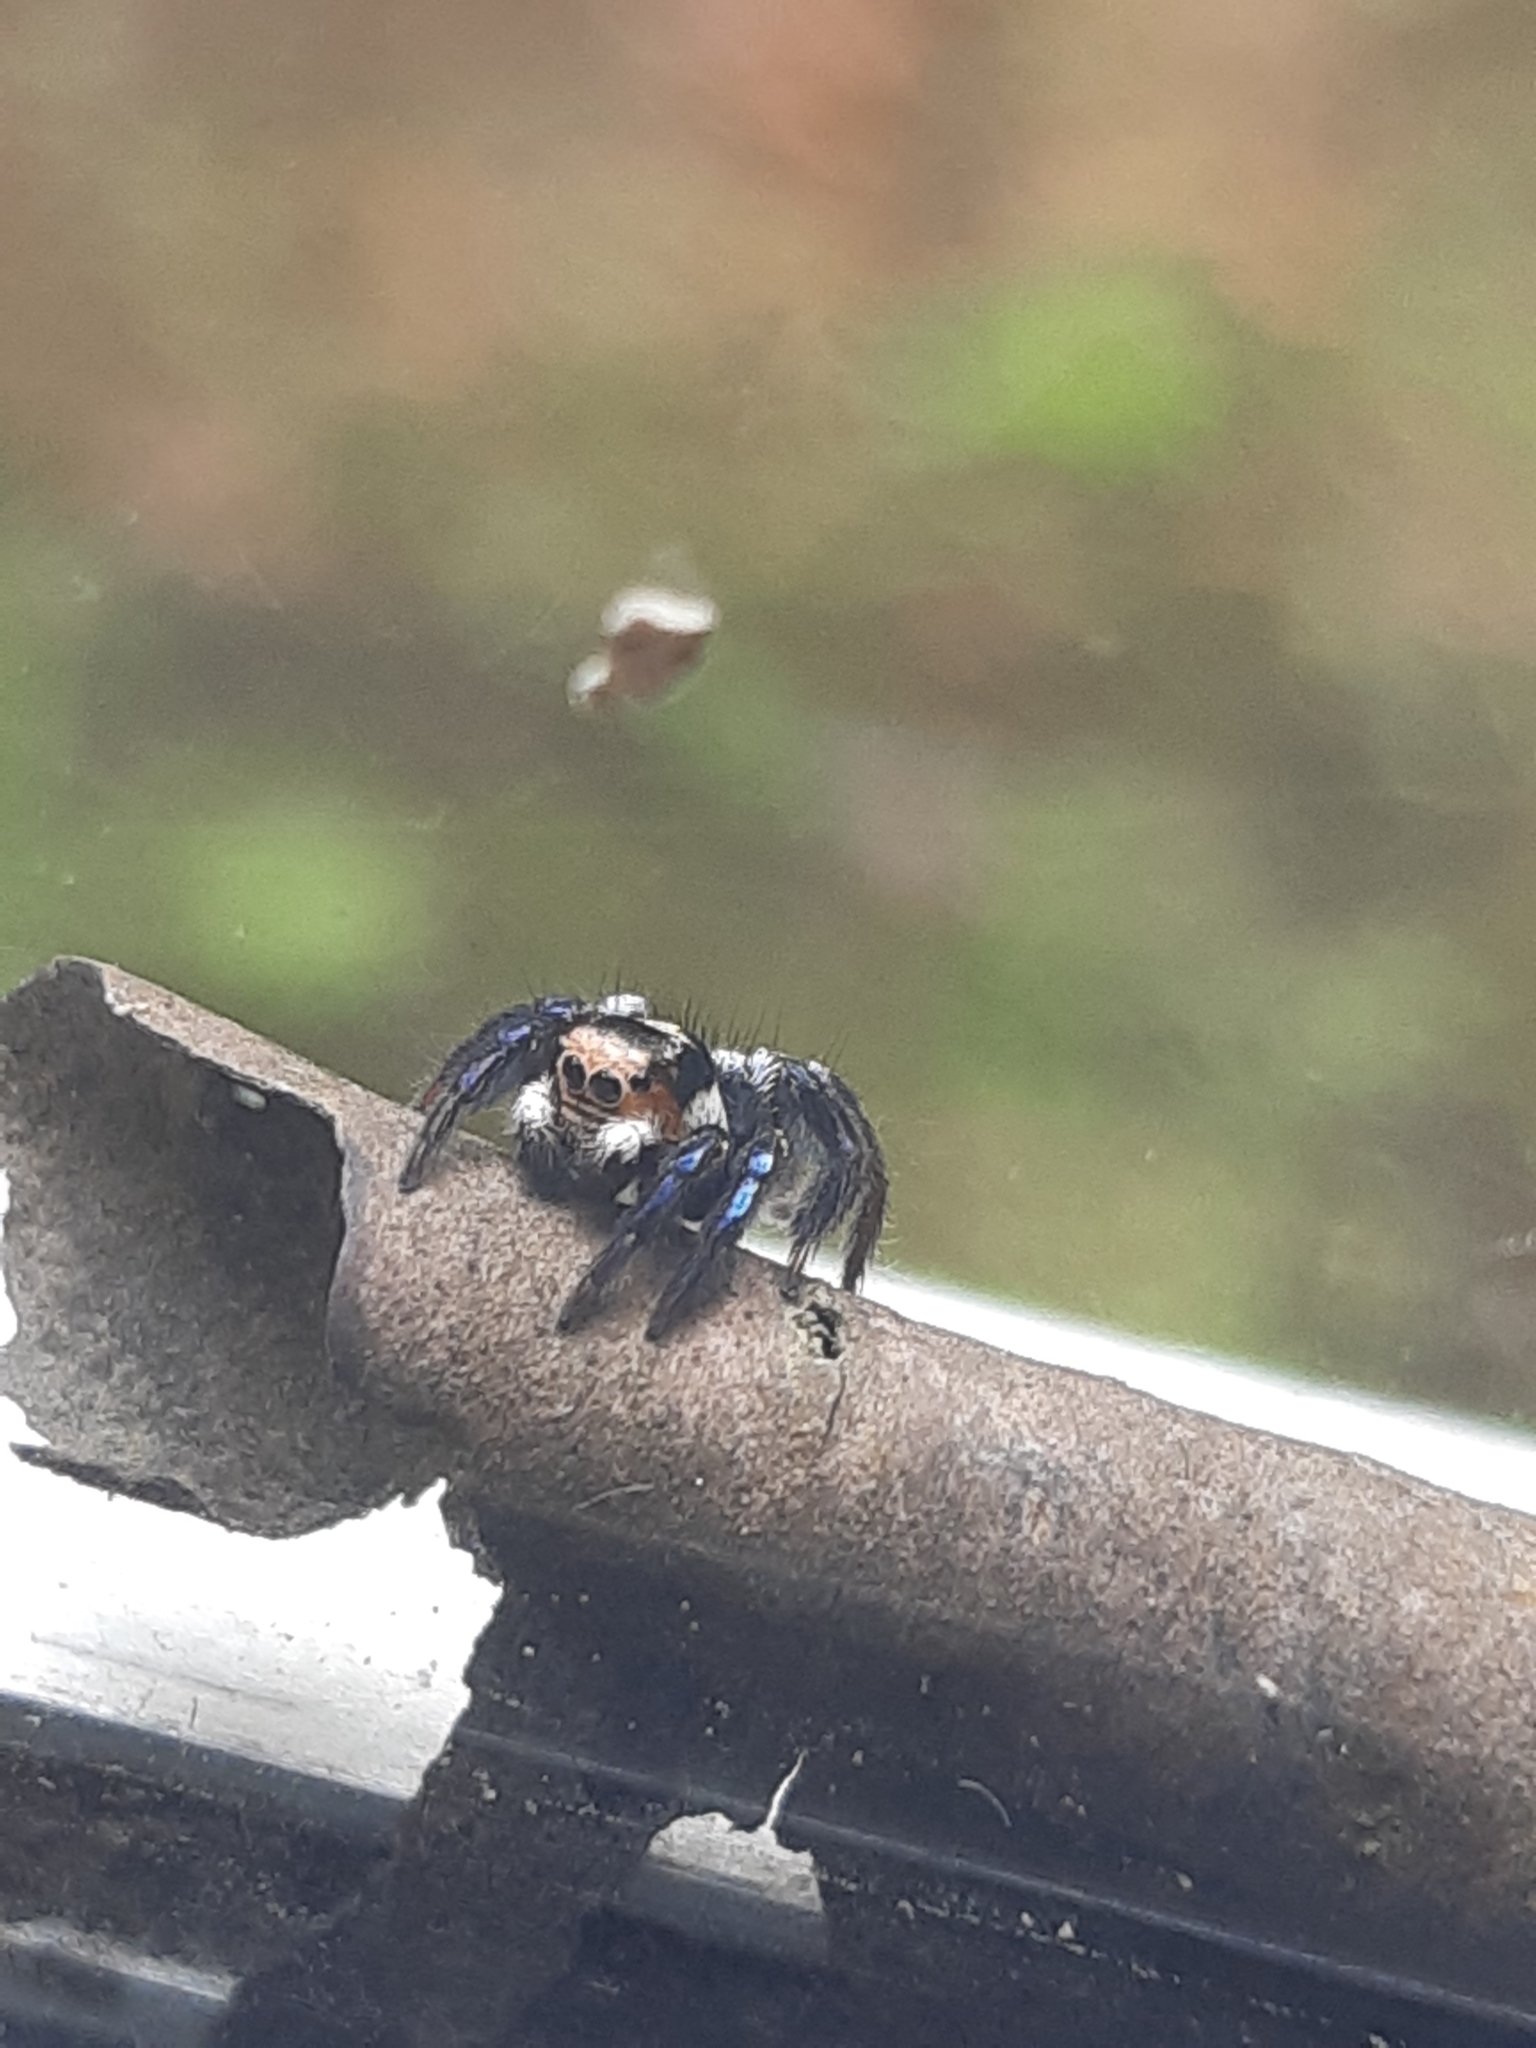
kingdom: Animalia
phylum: Arthropoda
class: Arachnida
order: Araneae
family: Salticidae
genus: Corythalia
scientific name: Corythalia argentinensis
